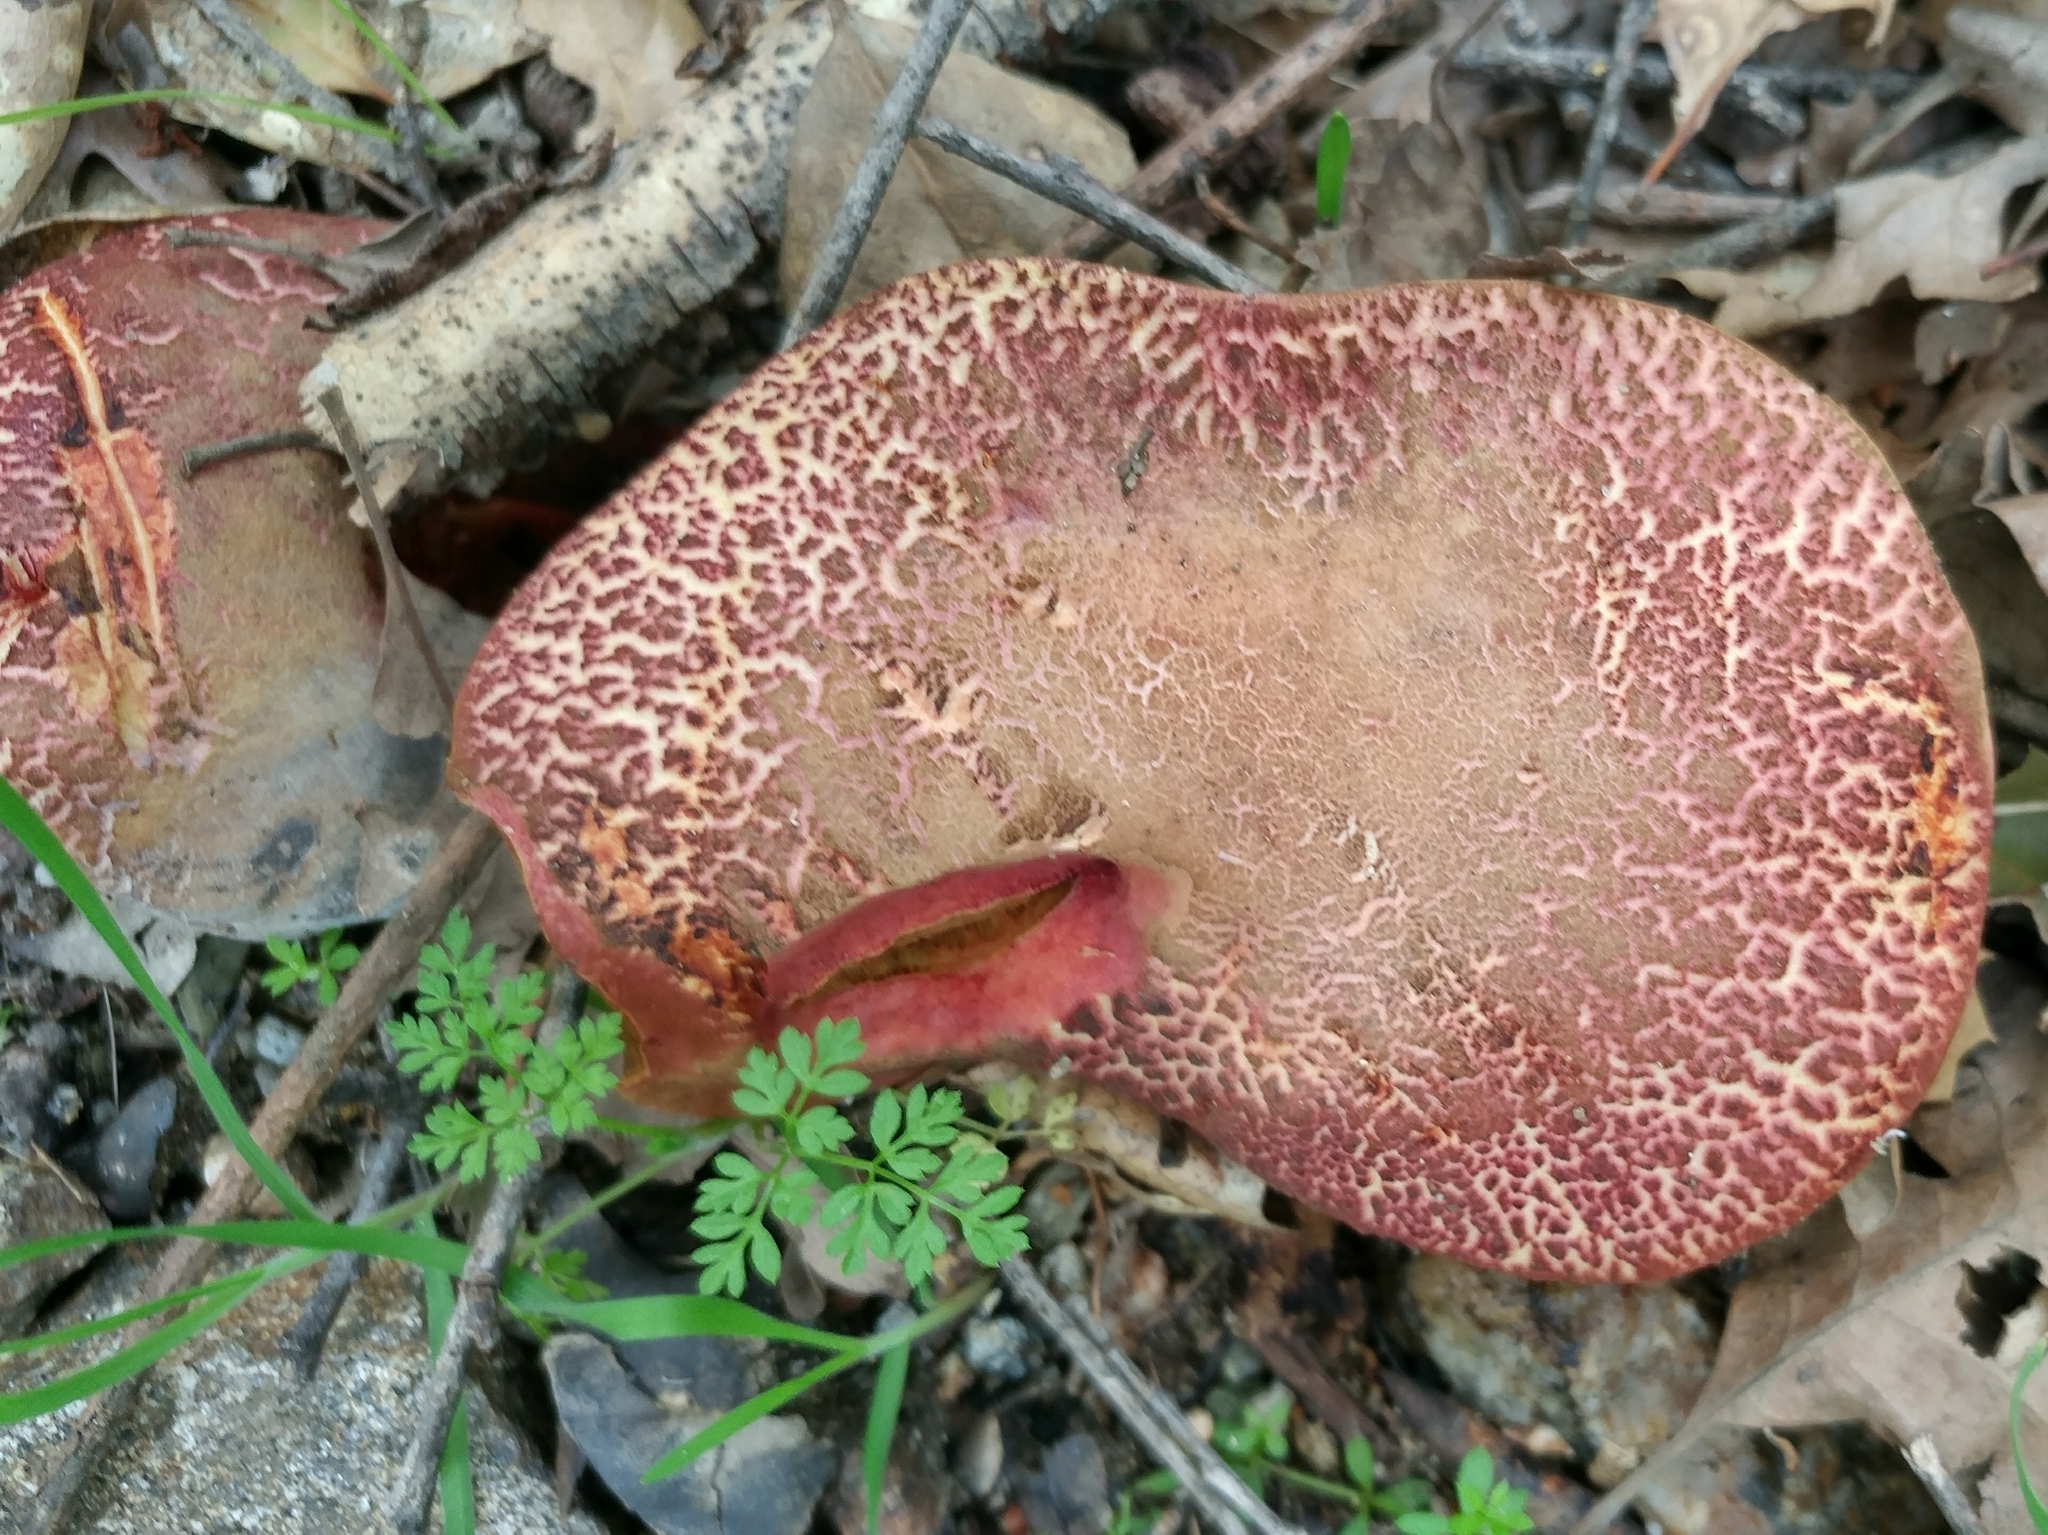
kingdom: Fungi
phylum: Basidiomycota
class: Agaricomycetes
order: Boletales
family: Boletaceae
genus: Xerocomellus
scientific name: Xerocomellus dryophilus
